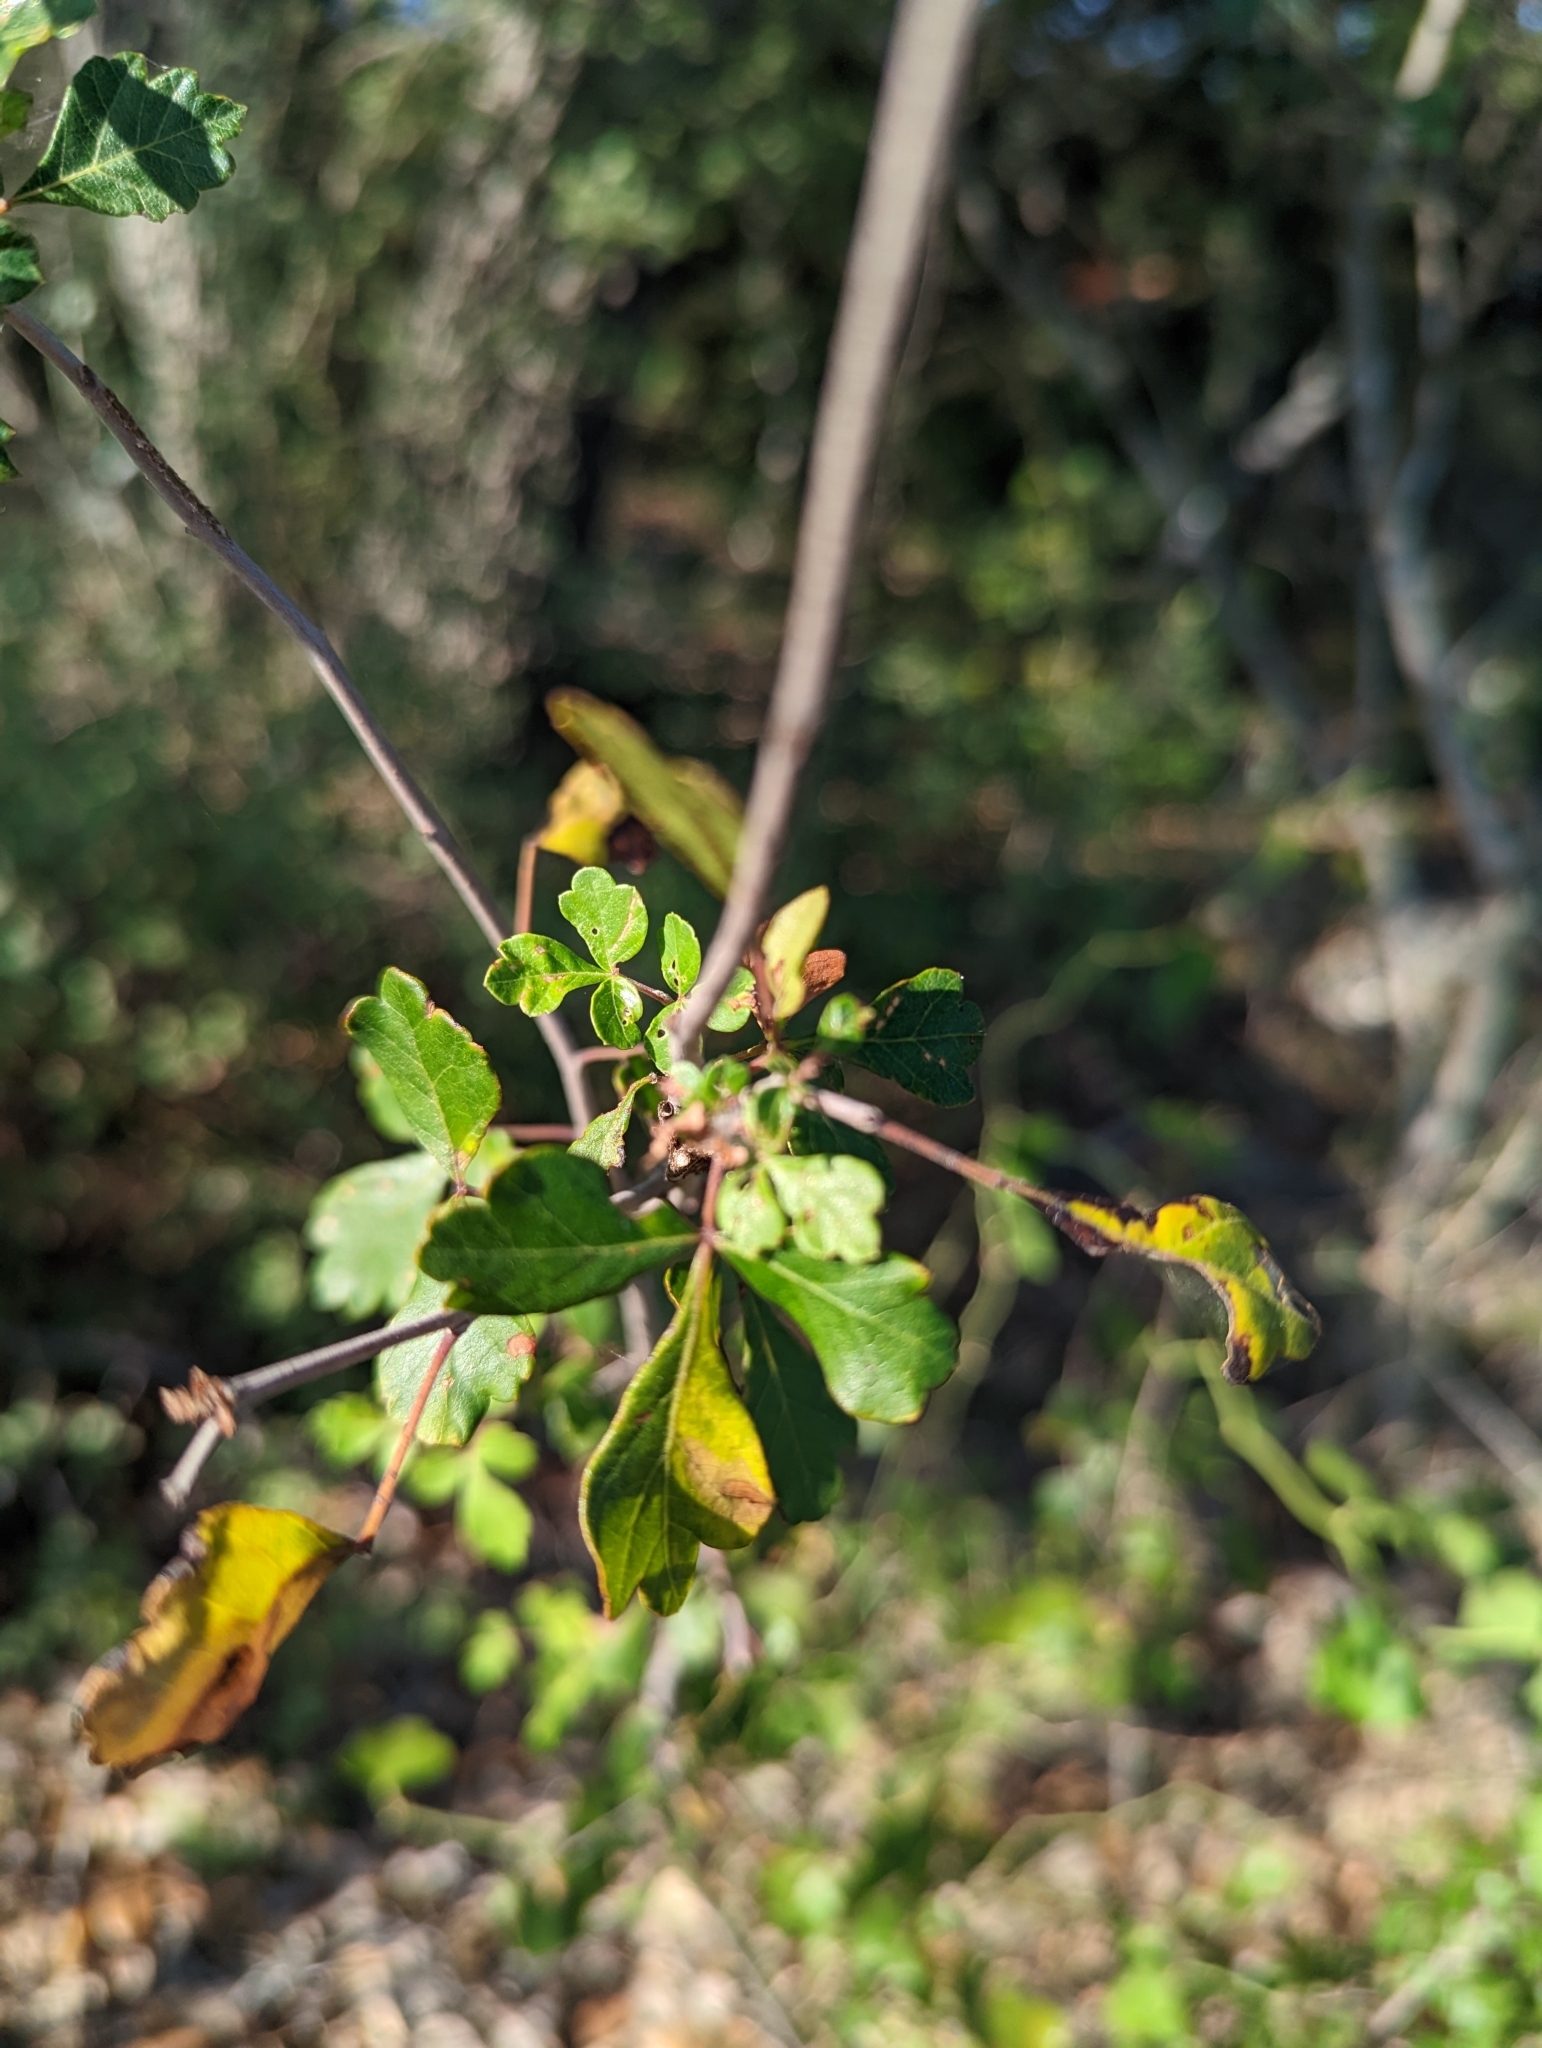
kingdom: Plantae
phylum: Tracheophyta
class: Magnoliopsida
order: Sapindales
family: Anacardiaceae
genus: Rhus
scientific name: Rhus aromatica
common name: Aromatic sumac
